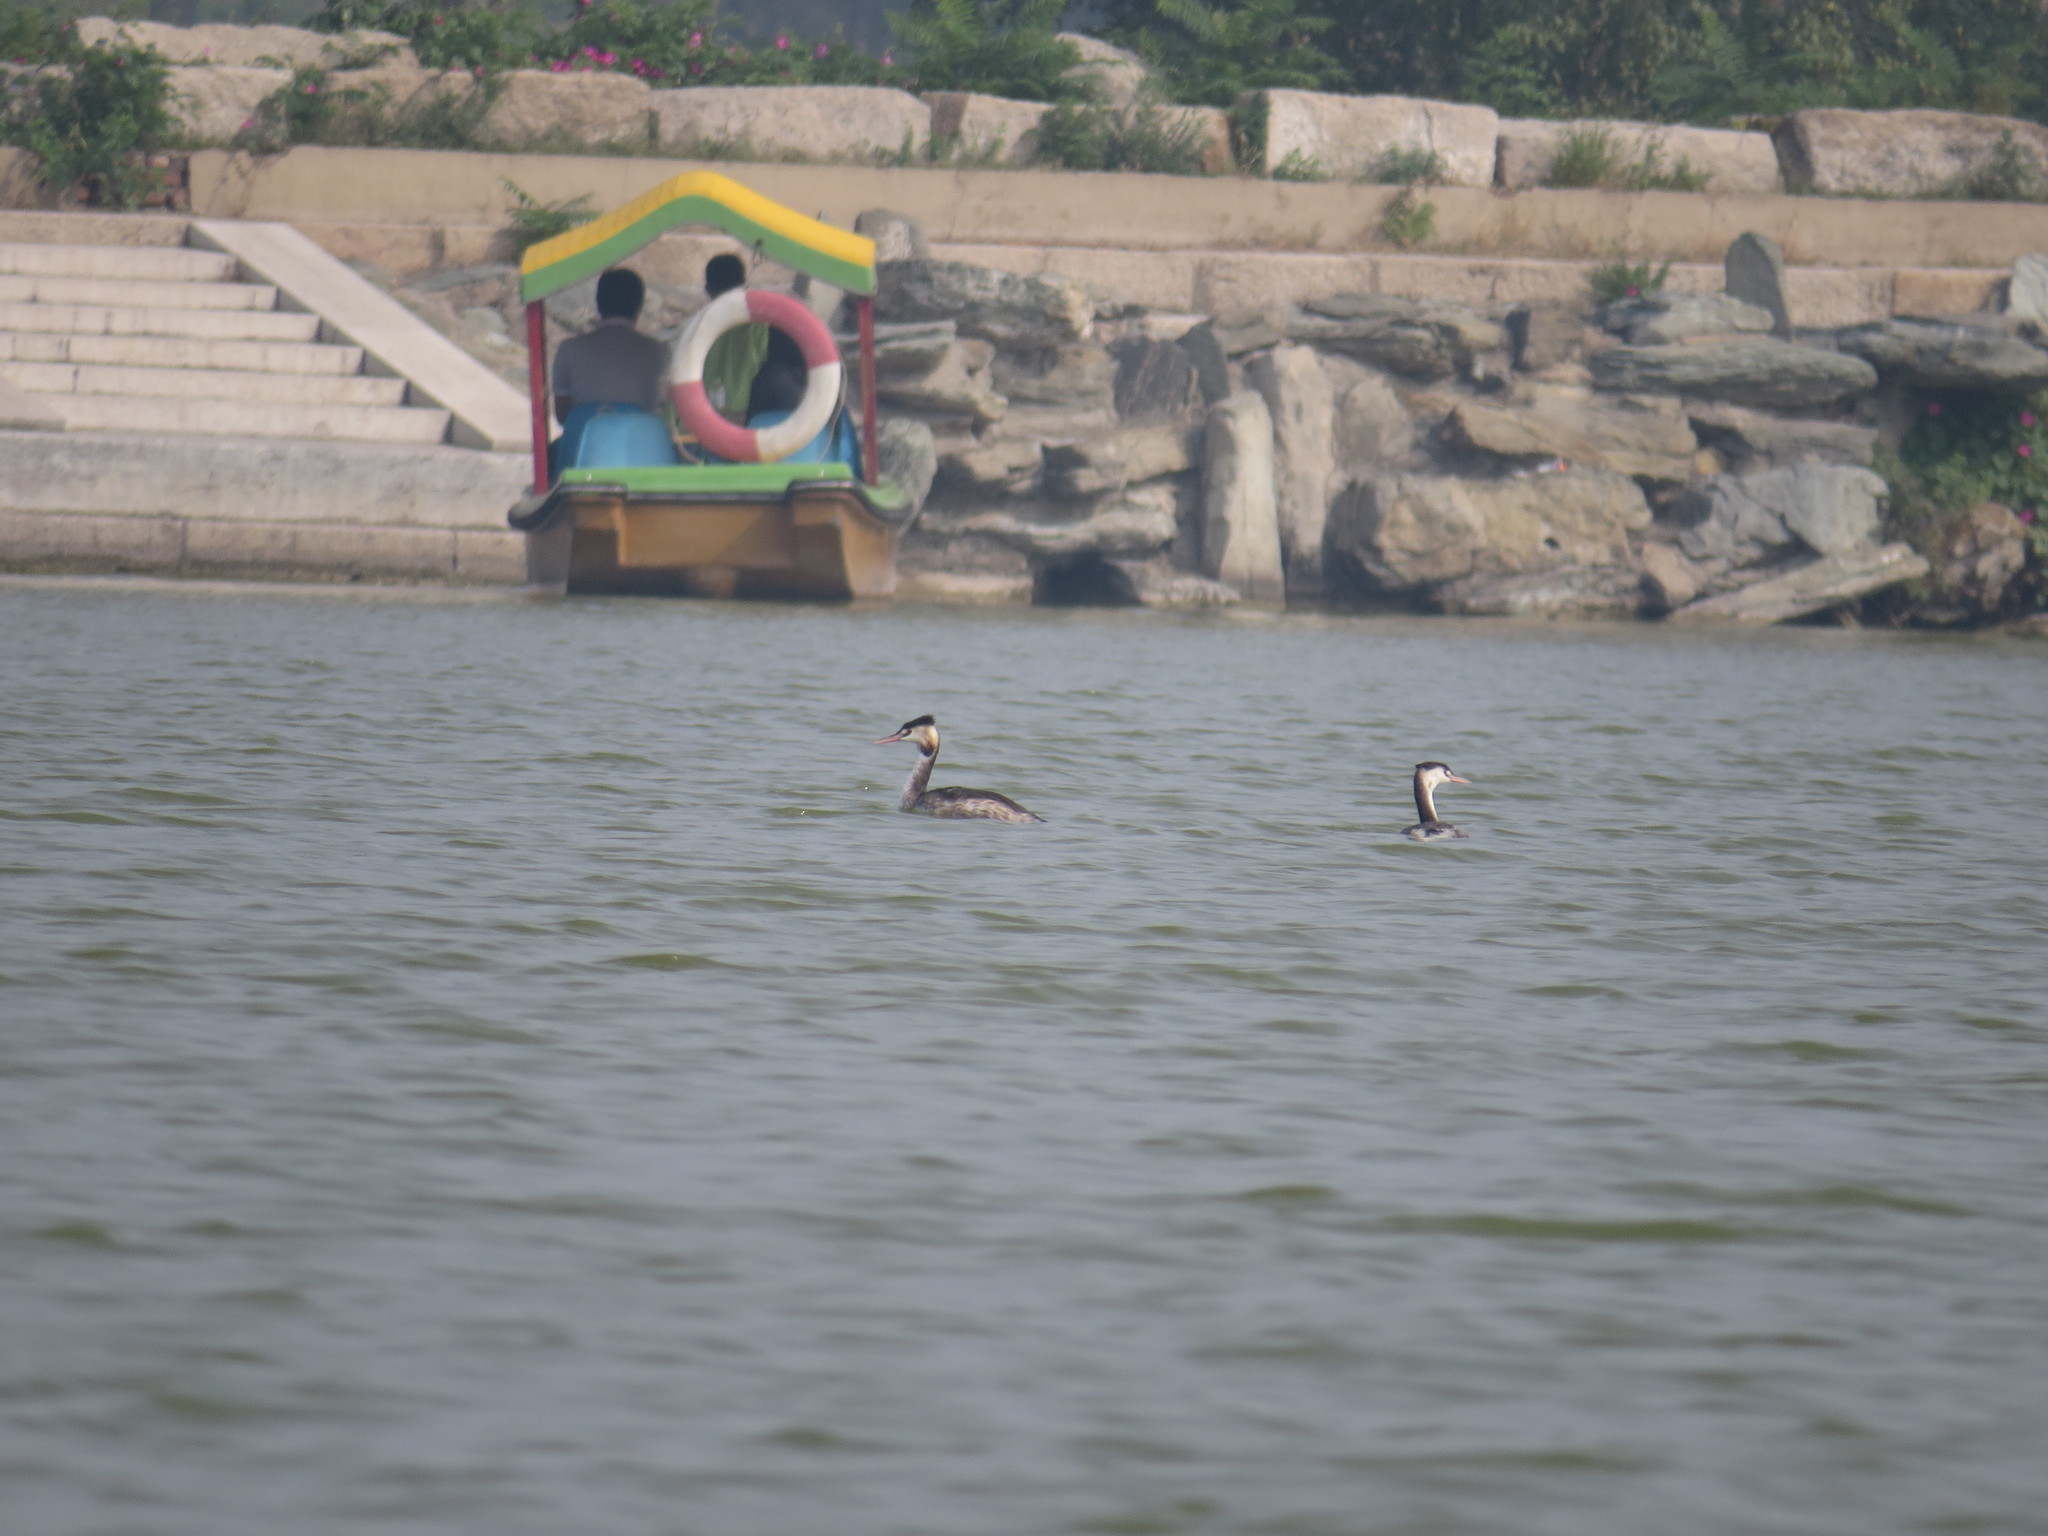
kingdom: Animalia
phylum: Chordata
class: Aves
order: Podicipediformes
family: Podicipedidae
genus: Podiceps
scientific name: Podiceps cristatus
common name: Great crested grebe
